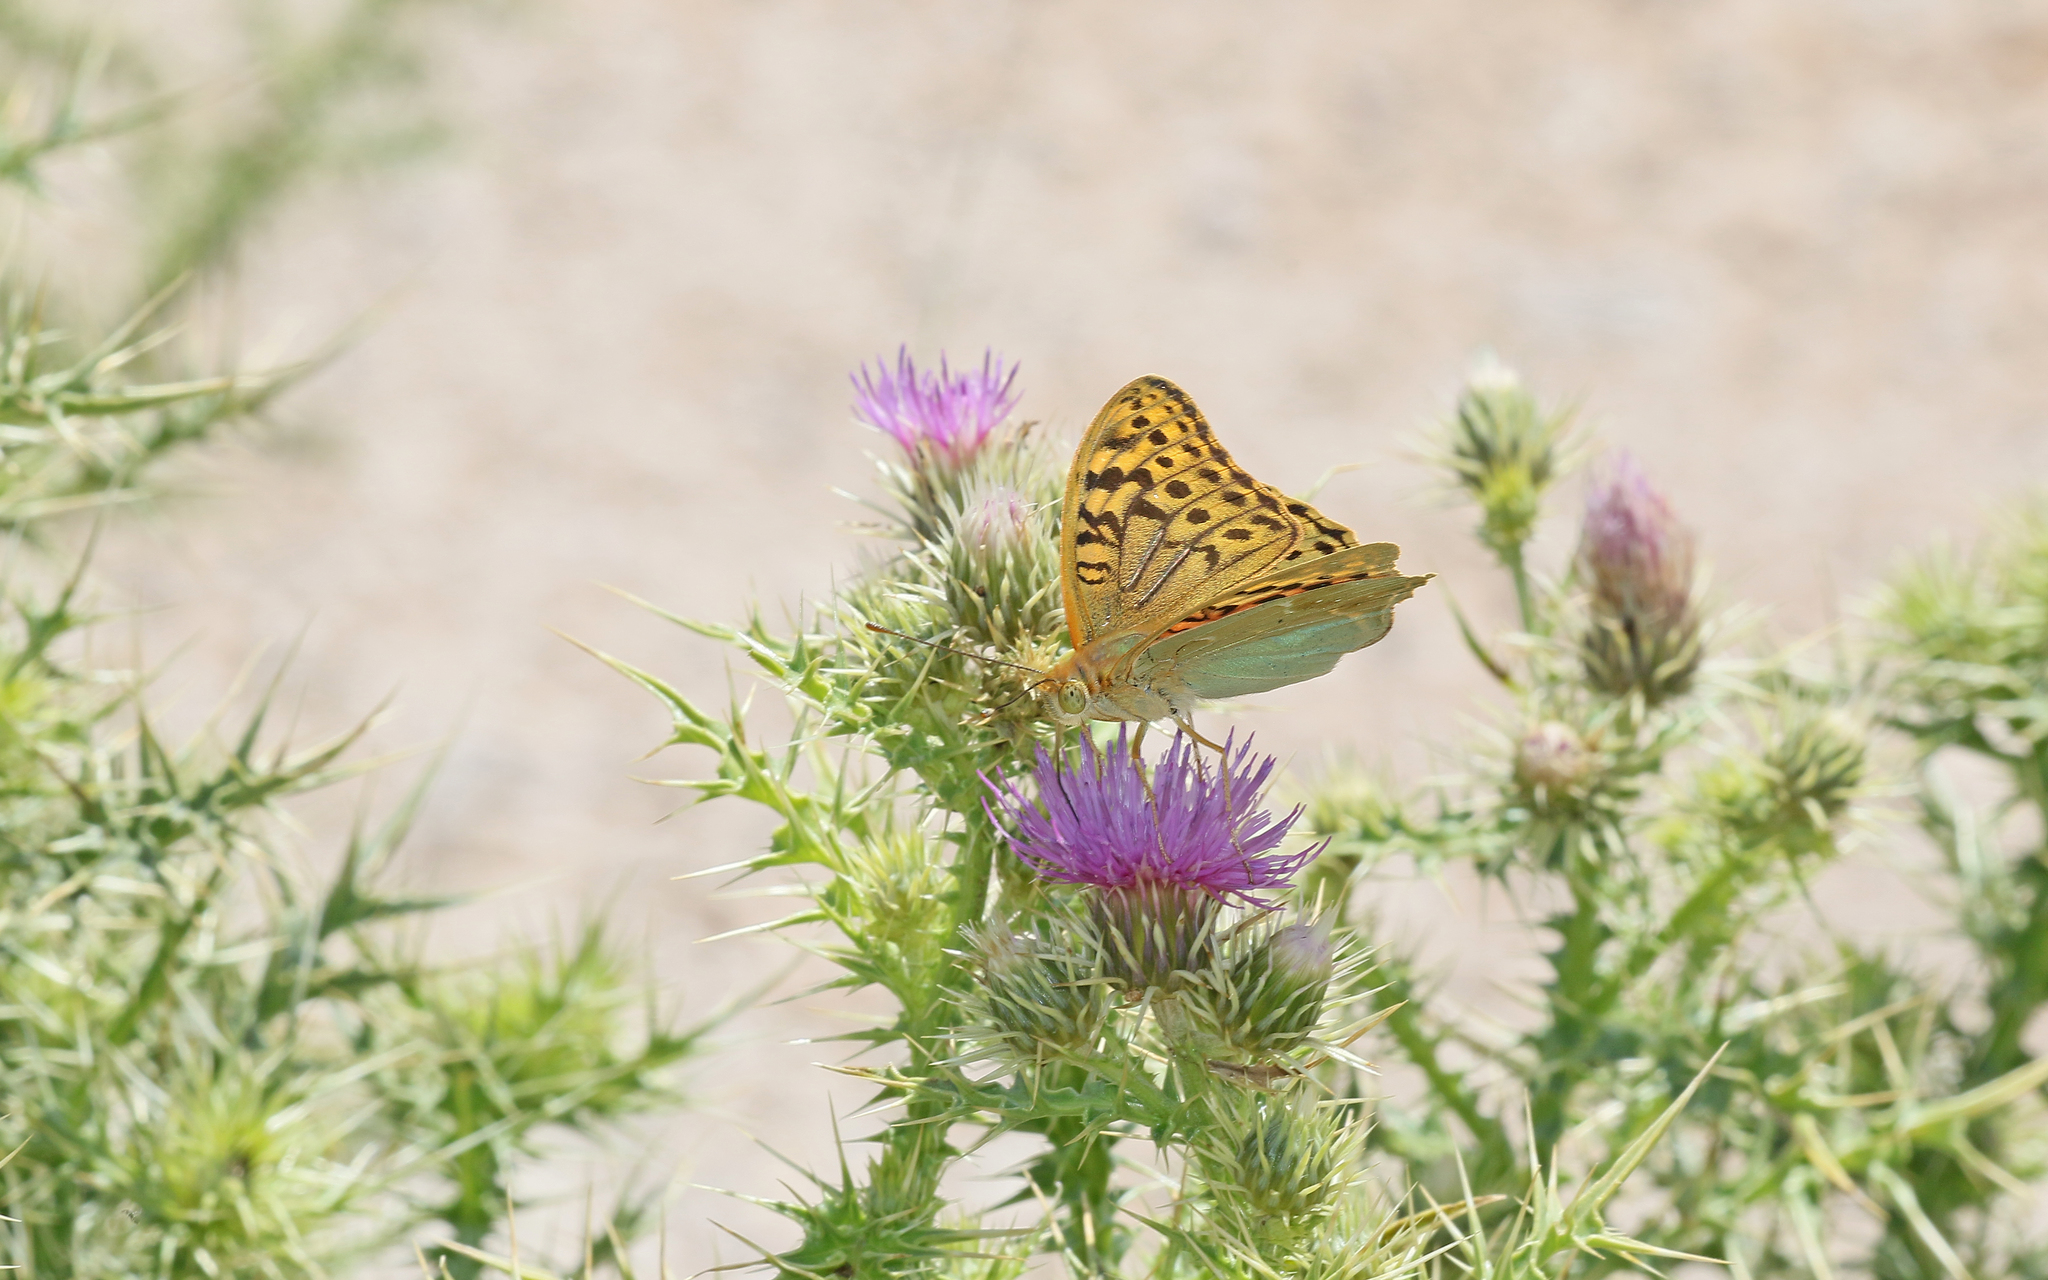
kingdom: Animalia
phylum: Arthropoda
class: Insecta
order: Lepidoptera
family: Nymphalidae
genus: Damora
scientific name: Damora pandora
